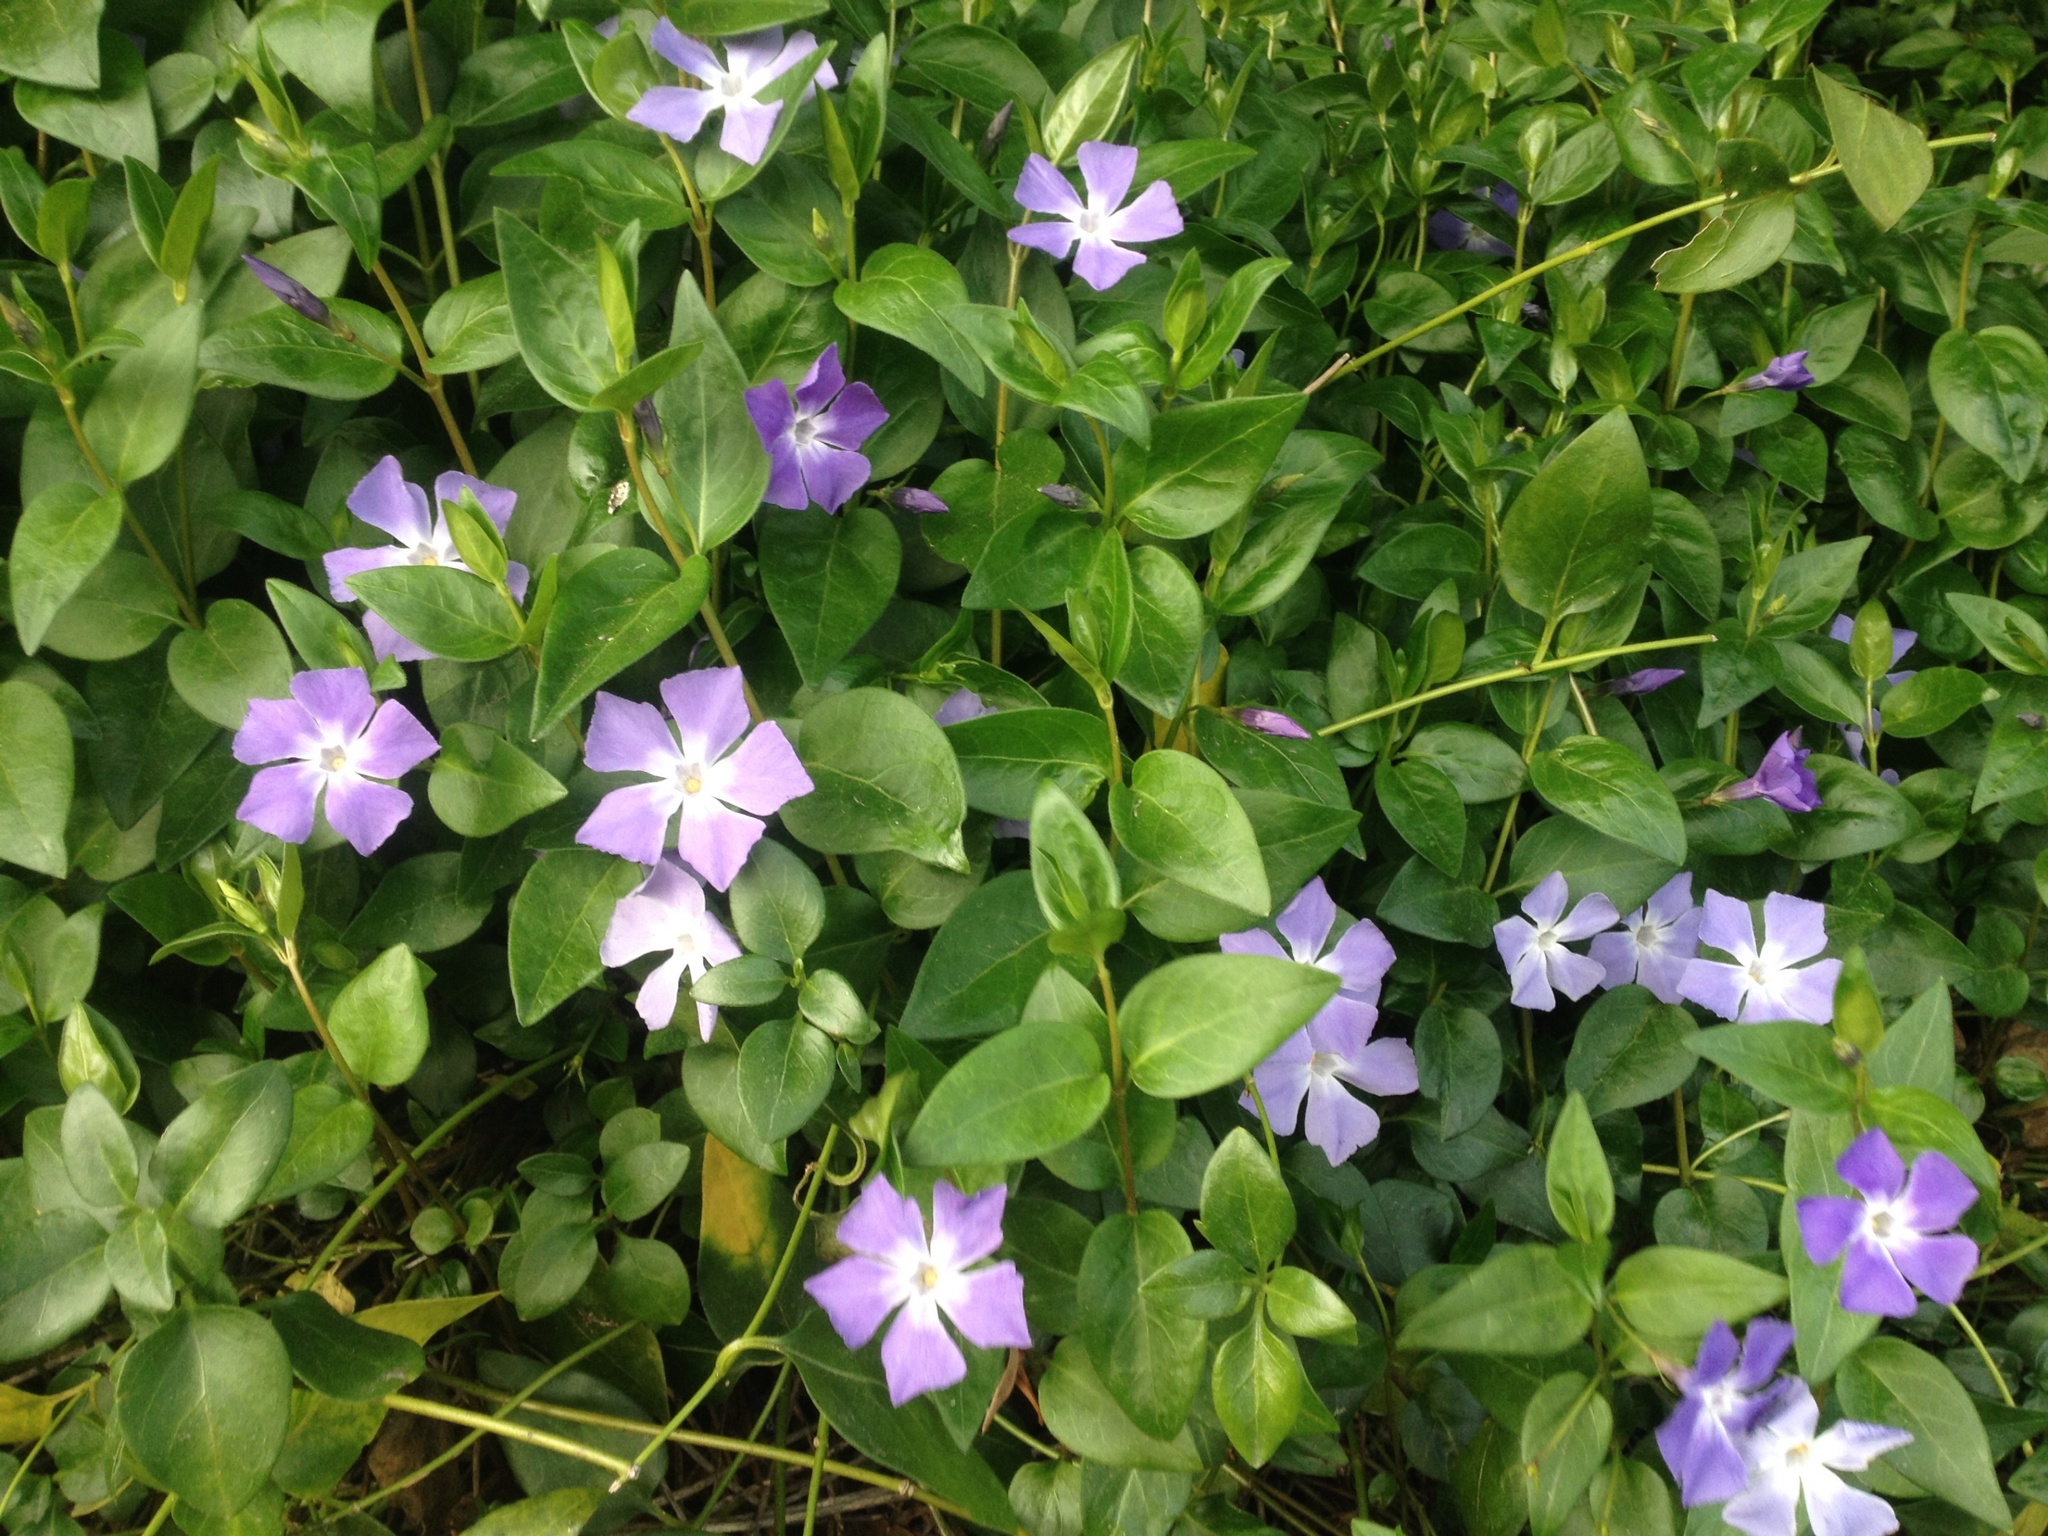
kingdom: Plantae
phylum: Tracheophyta
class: Magnoliopsida
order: Gentianales
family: Apocynaceae
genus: Vinca
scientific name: Vinca major
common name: Greater periwinkle
